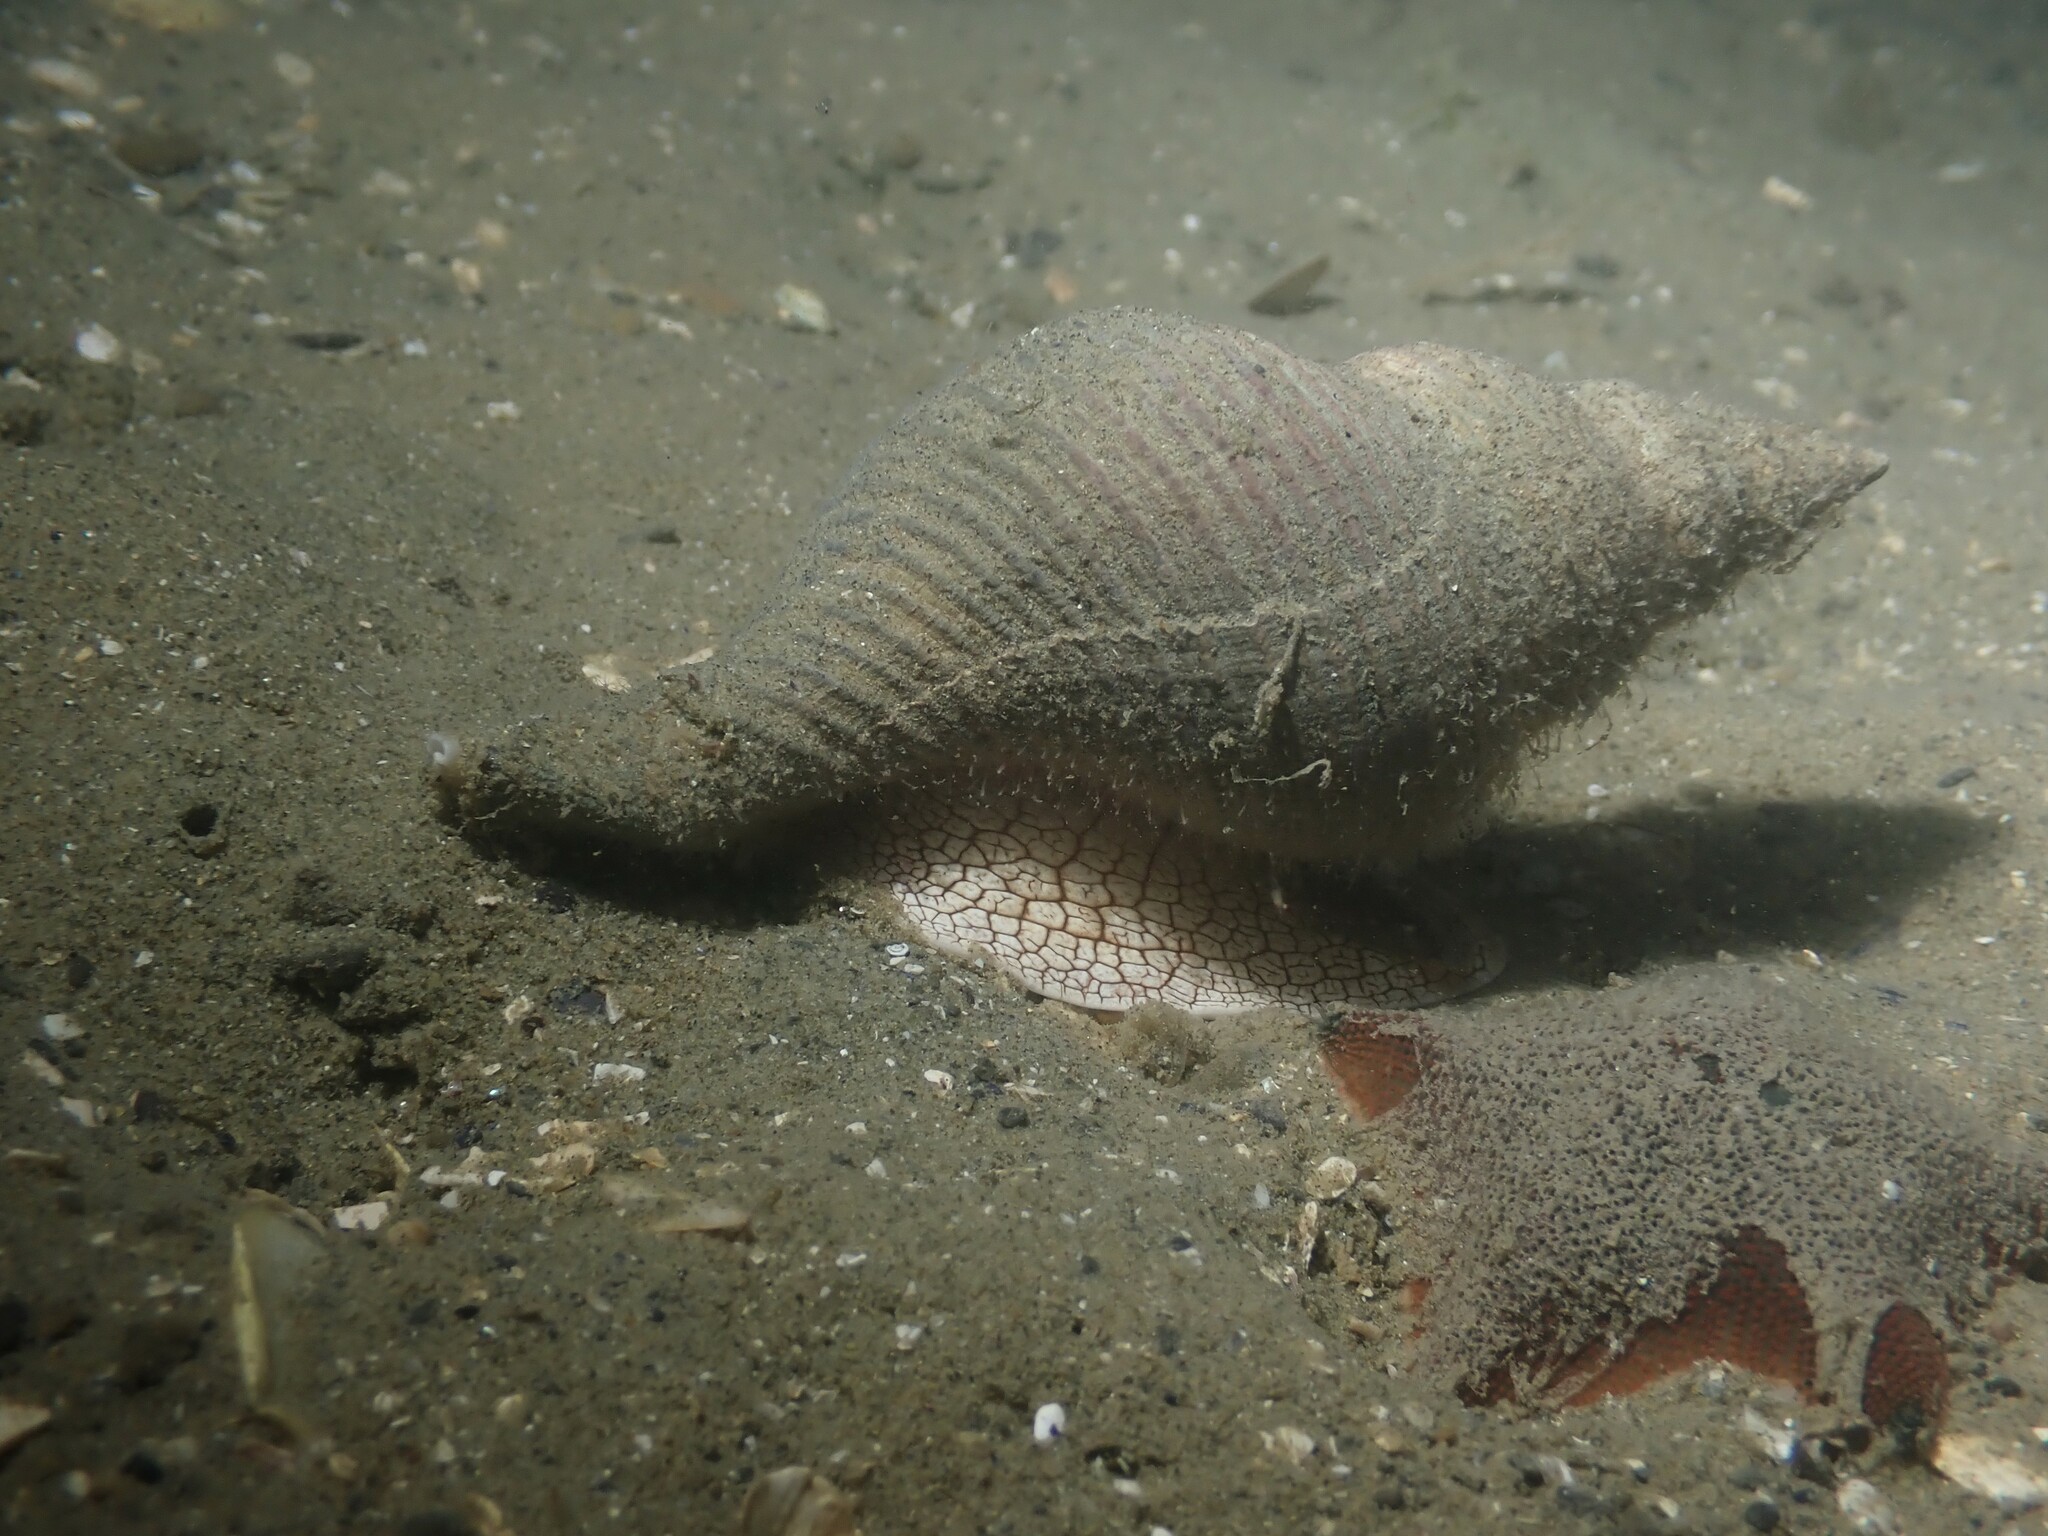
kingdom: Animalia
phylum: Mollusca
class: Gastropoda
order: Neogastropoda
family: Austrosiphonidae
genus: Penion
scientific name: Penion sulcatus
